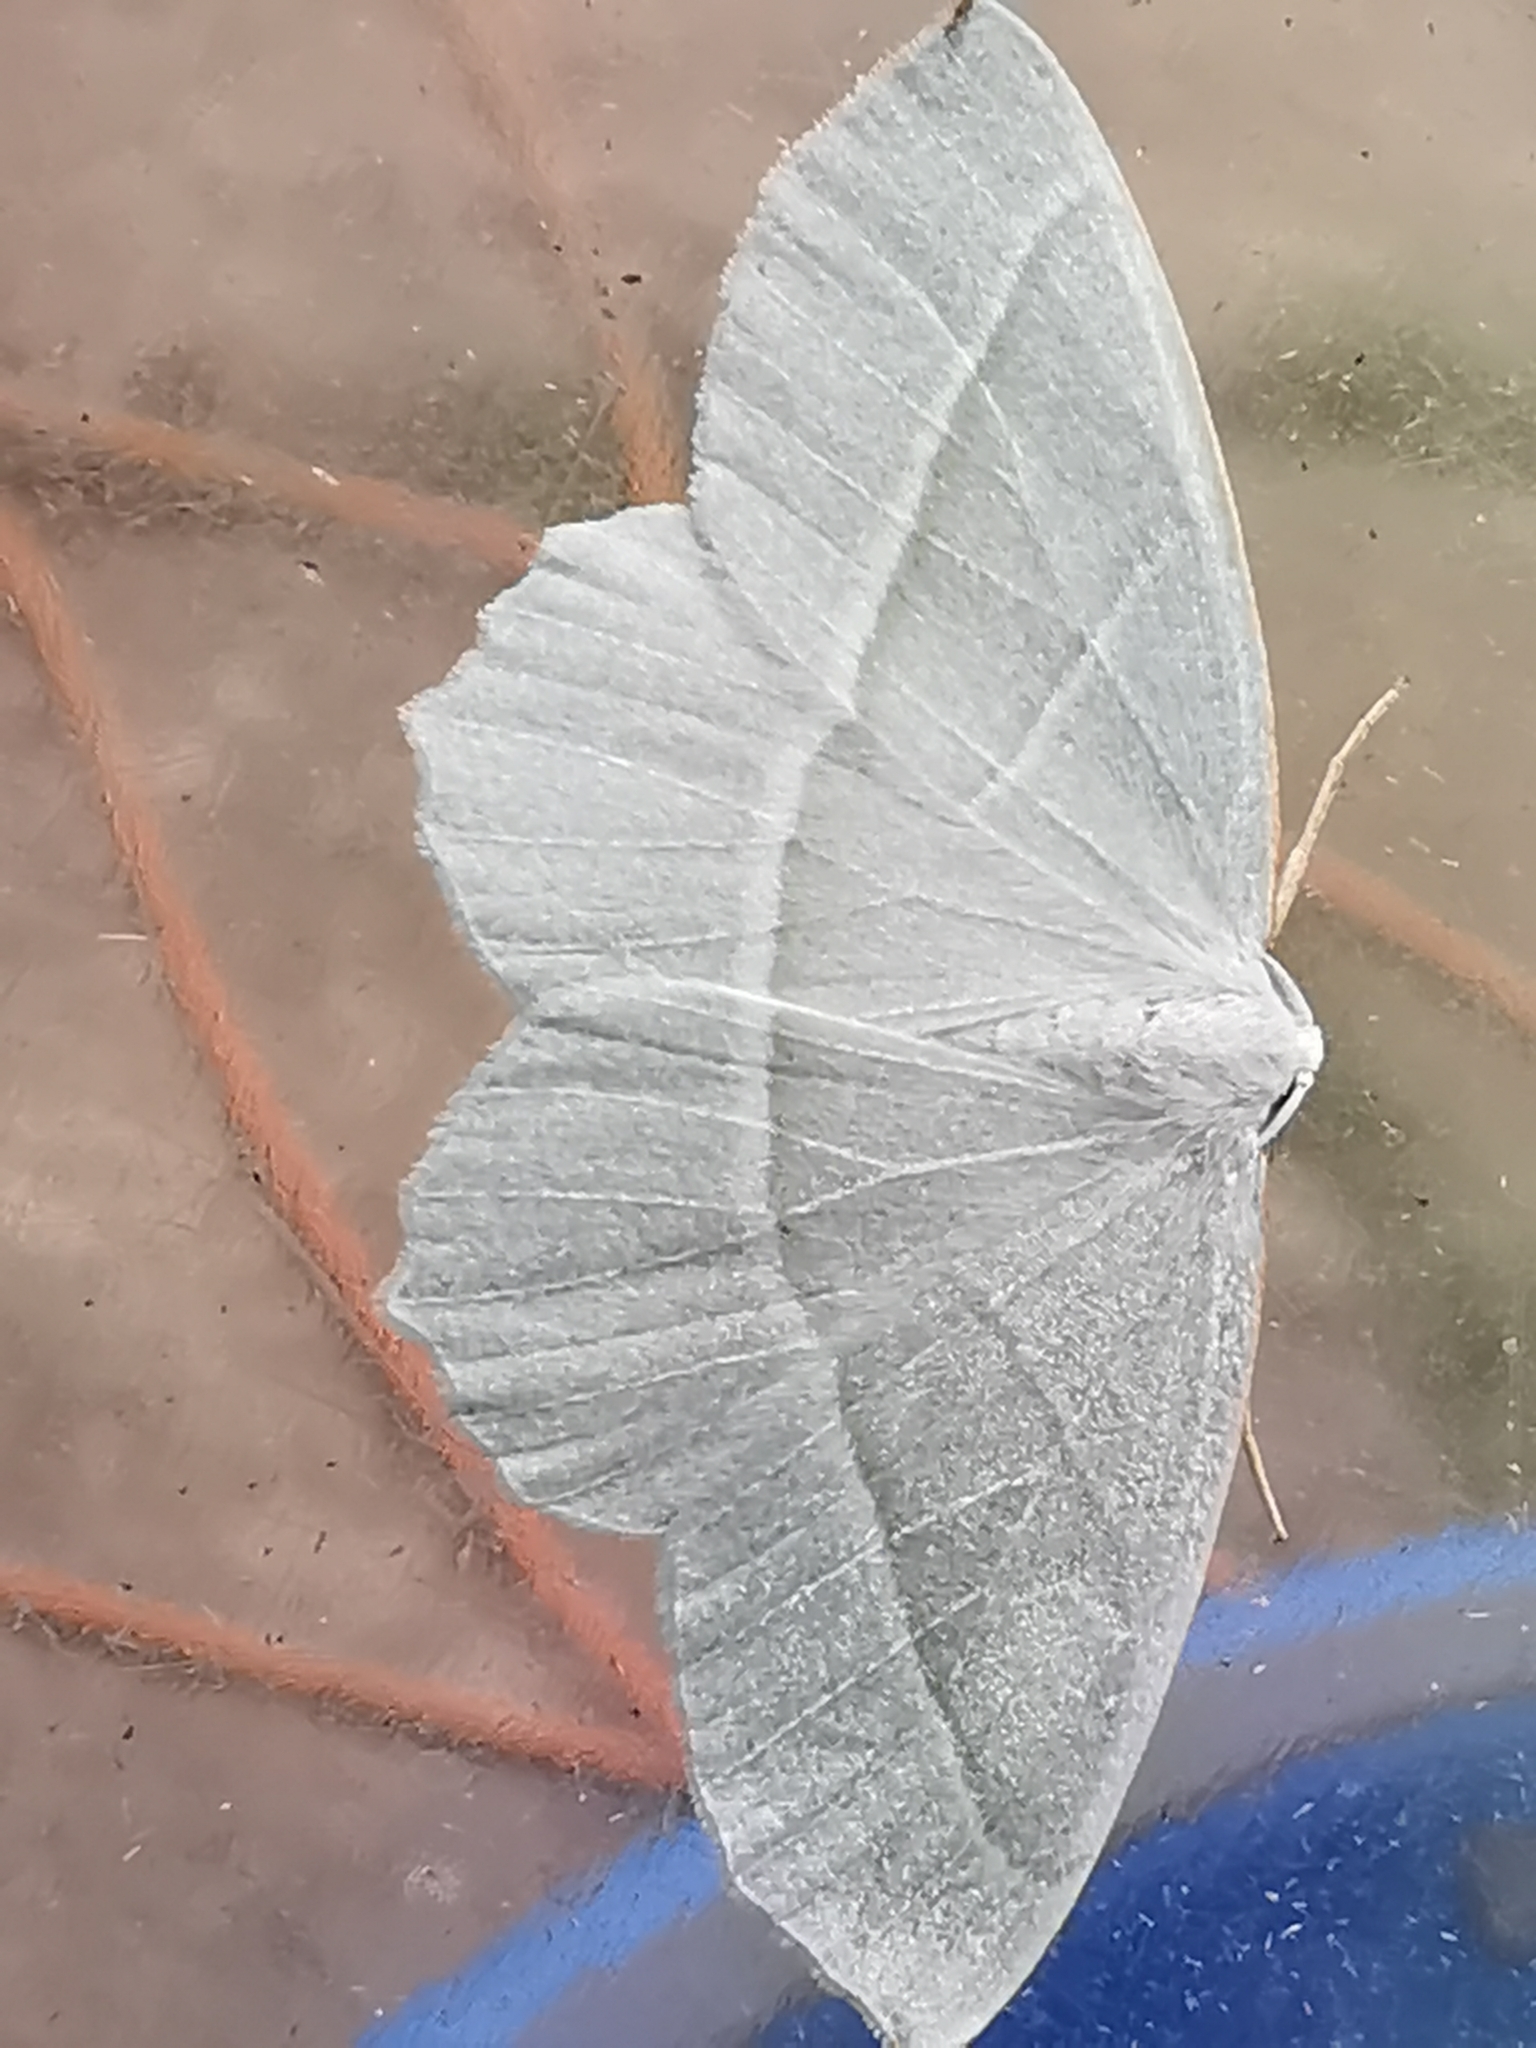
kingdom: Animalia
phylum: Arthropoda
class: Insecta
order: Lepidoptera
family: Geometridae
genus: Campaea
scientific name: Campaea margaritaria
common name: Light emerald
